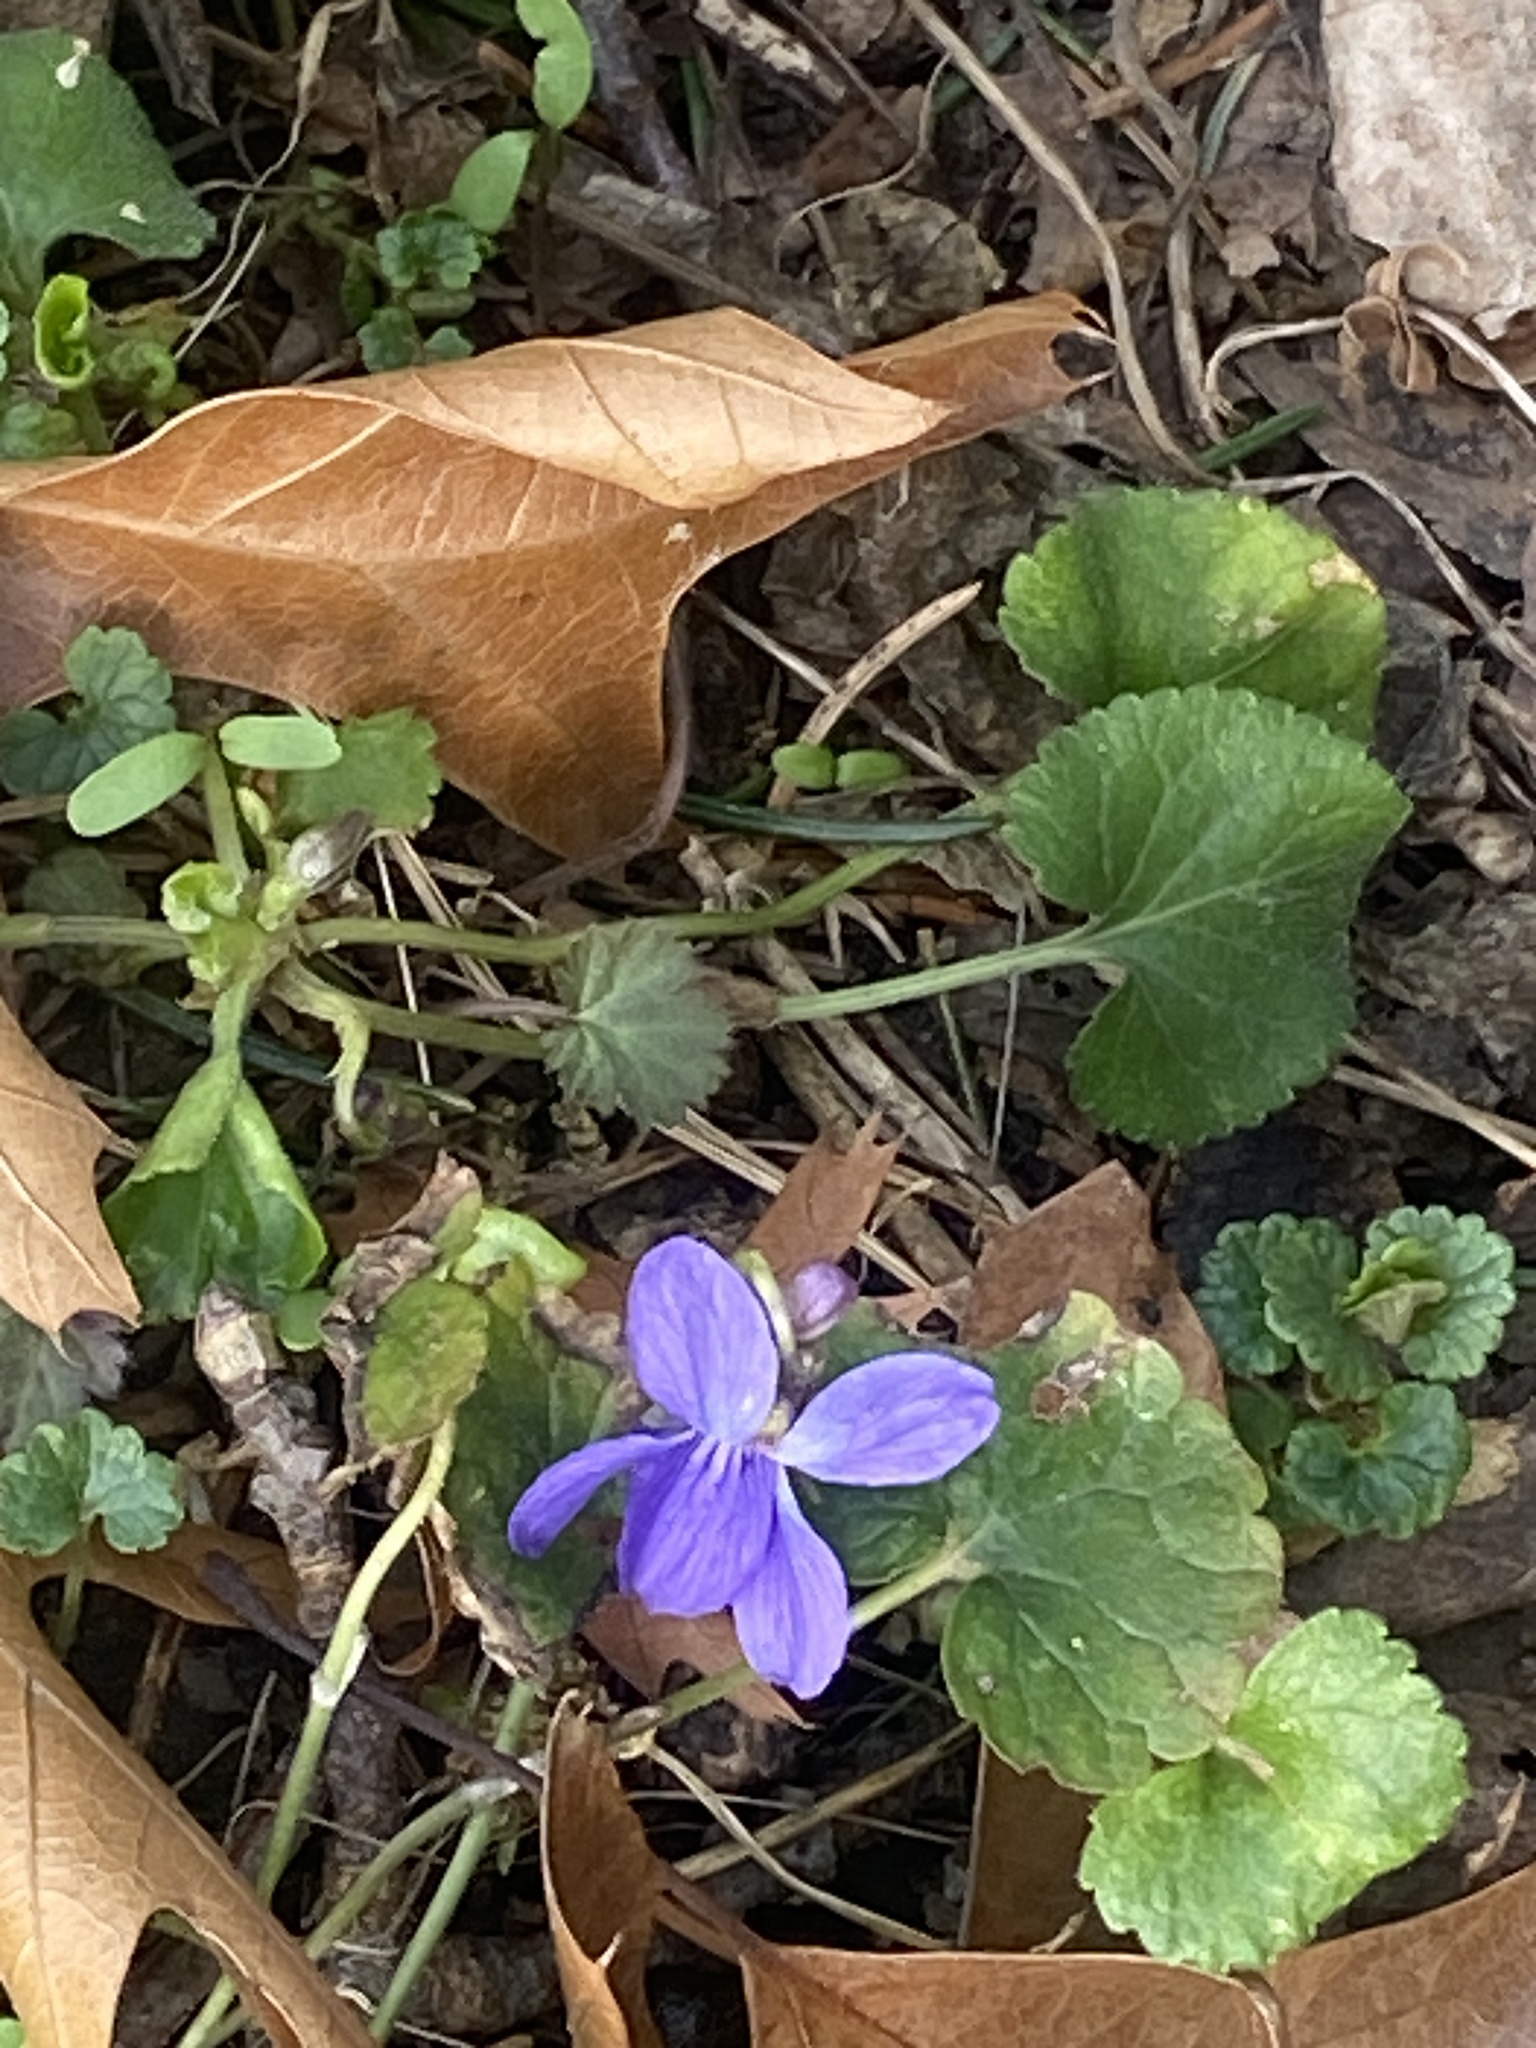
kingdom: Plantae
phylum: Tracheophyta
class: Magnoliopsida
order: Malpighiales
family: Violaceae
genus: Viola
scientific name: Viola odorata
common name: Sweet violet
